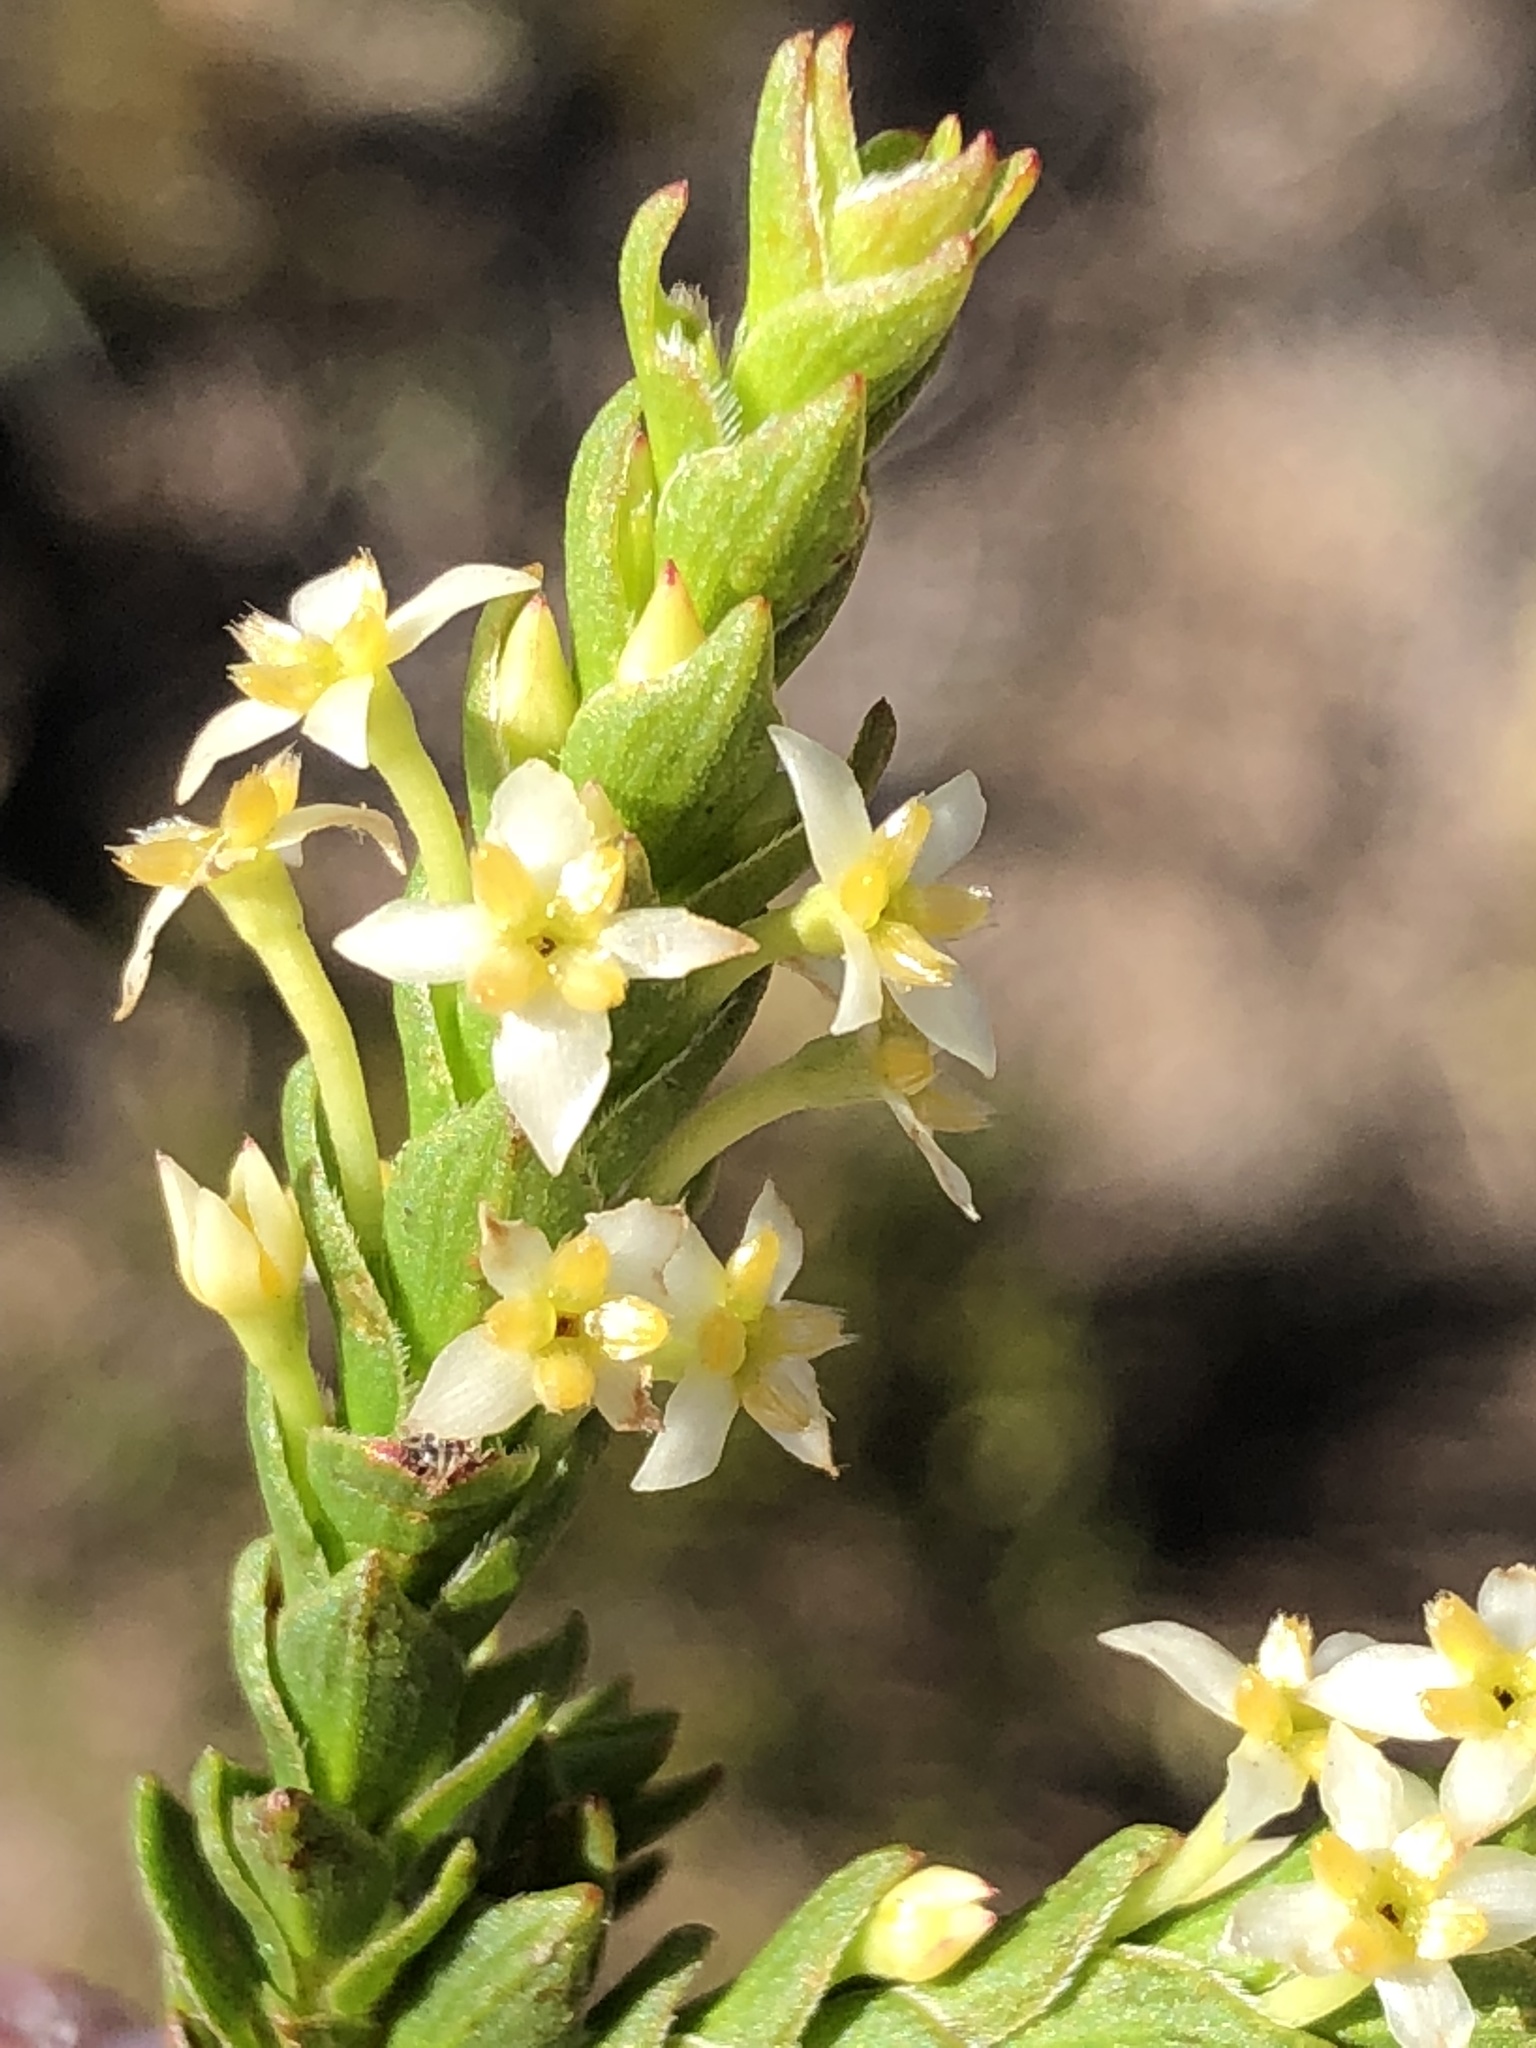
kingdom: Plantae
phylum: Tracheophyta
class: Magnoliopsida
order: Malvales
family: Thymelaeaceae
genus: Struthiola
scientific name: Struthiola striata
